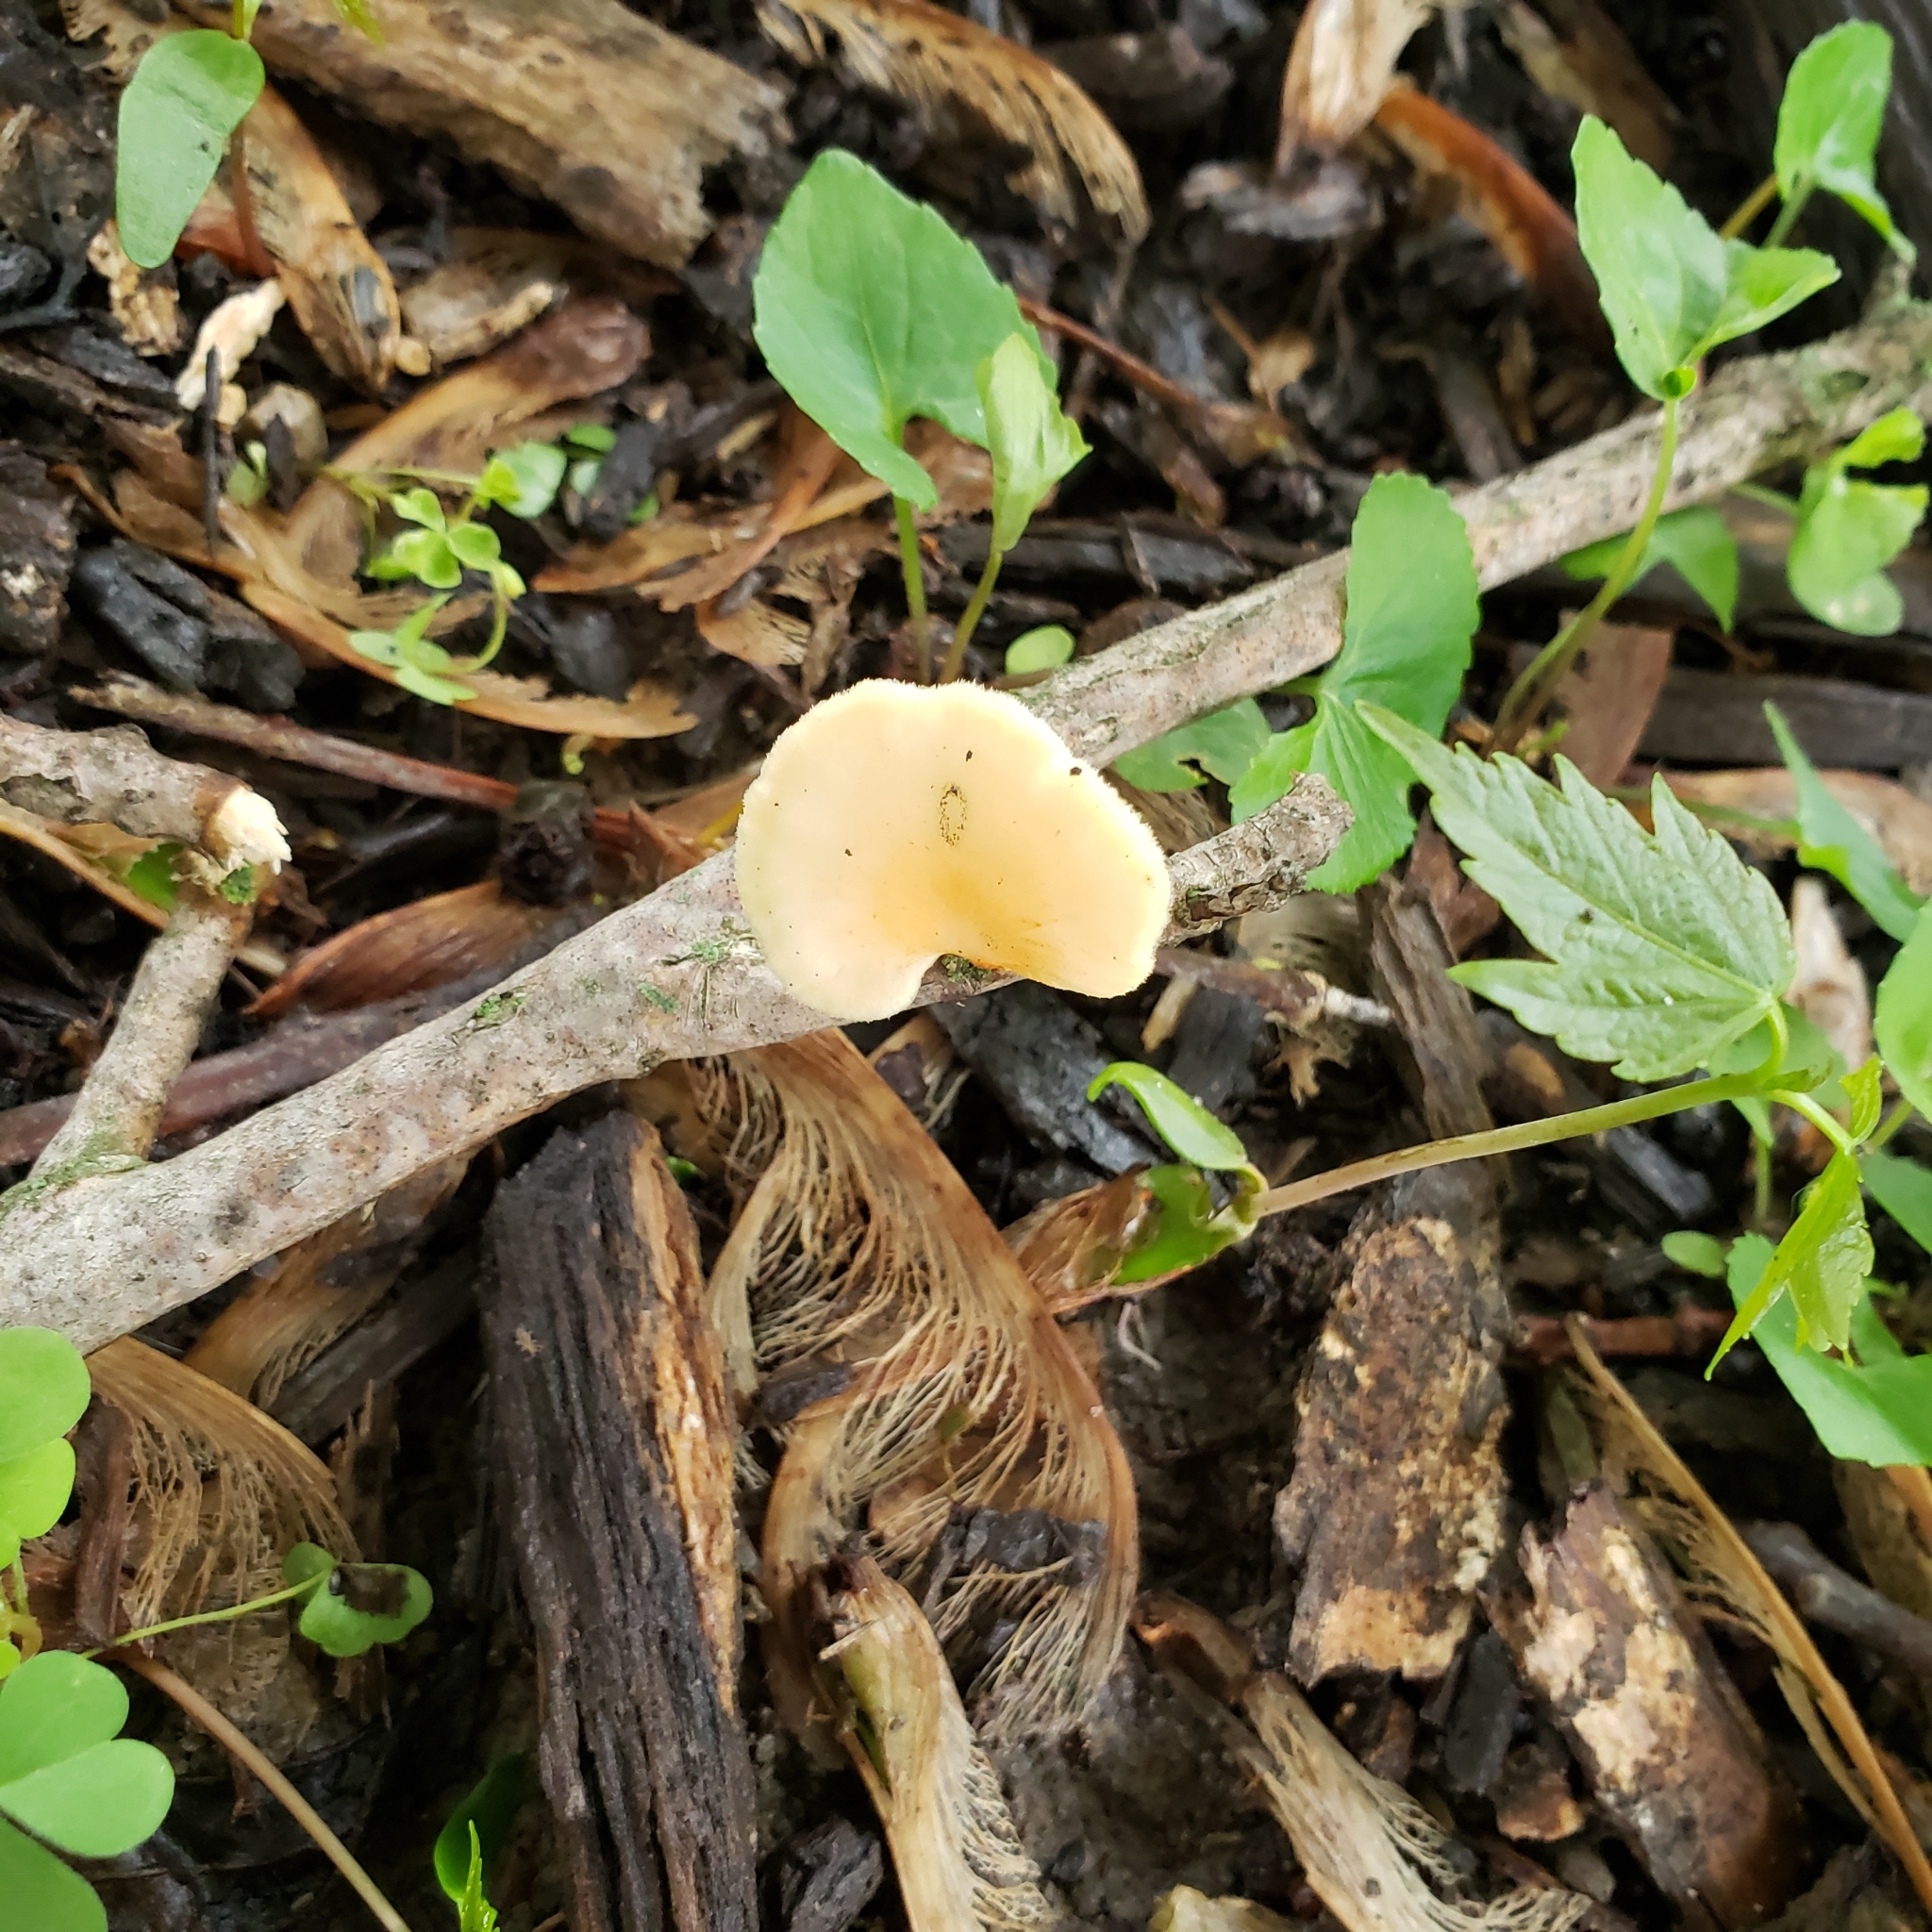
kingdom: Fungi
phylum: Basidiomycota
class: Agaricomycetes
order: Polyporales
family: Polyporaceae
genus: Neofavolus
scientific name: Neofavolus alveolaris
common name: Hexagonal-pored polypore
